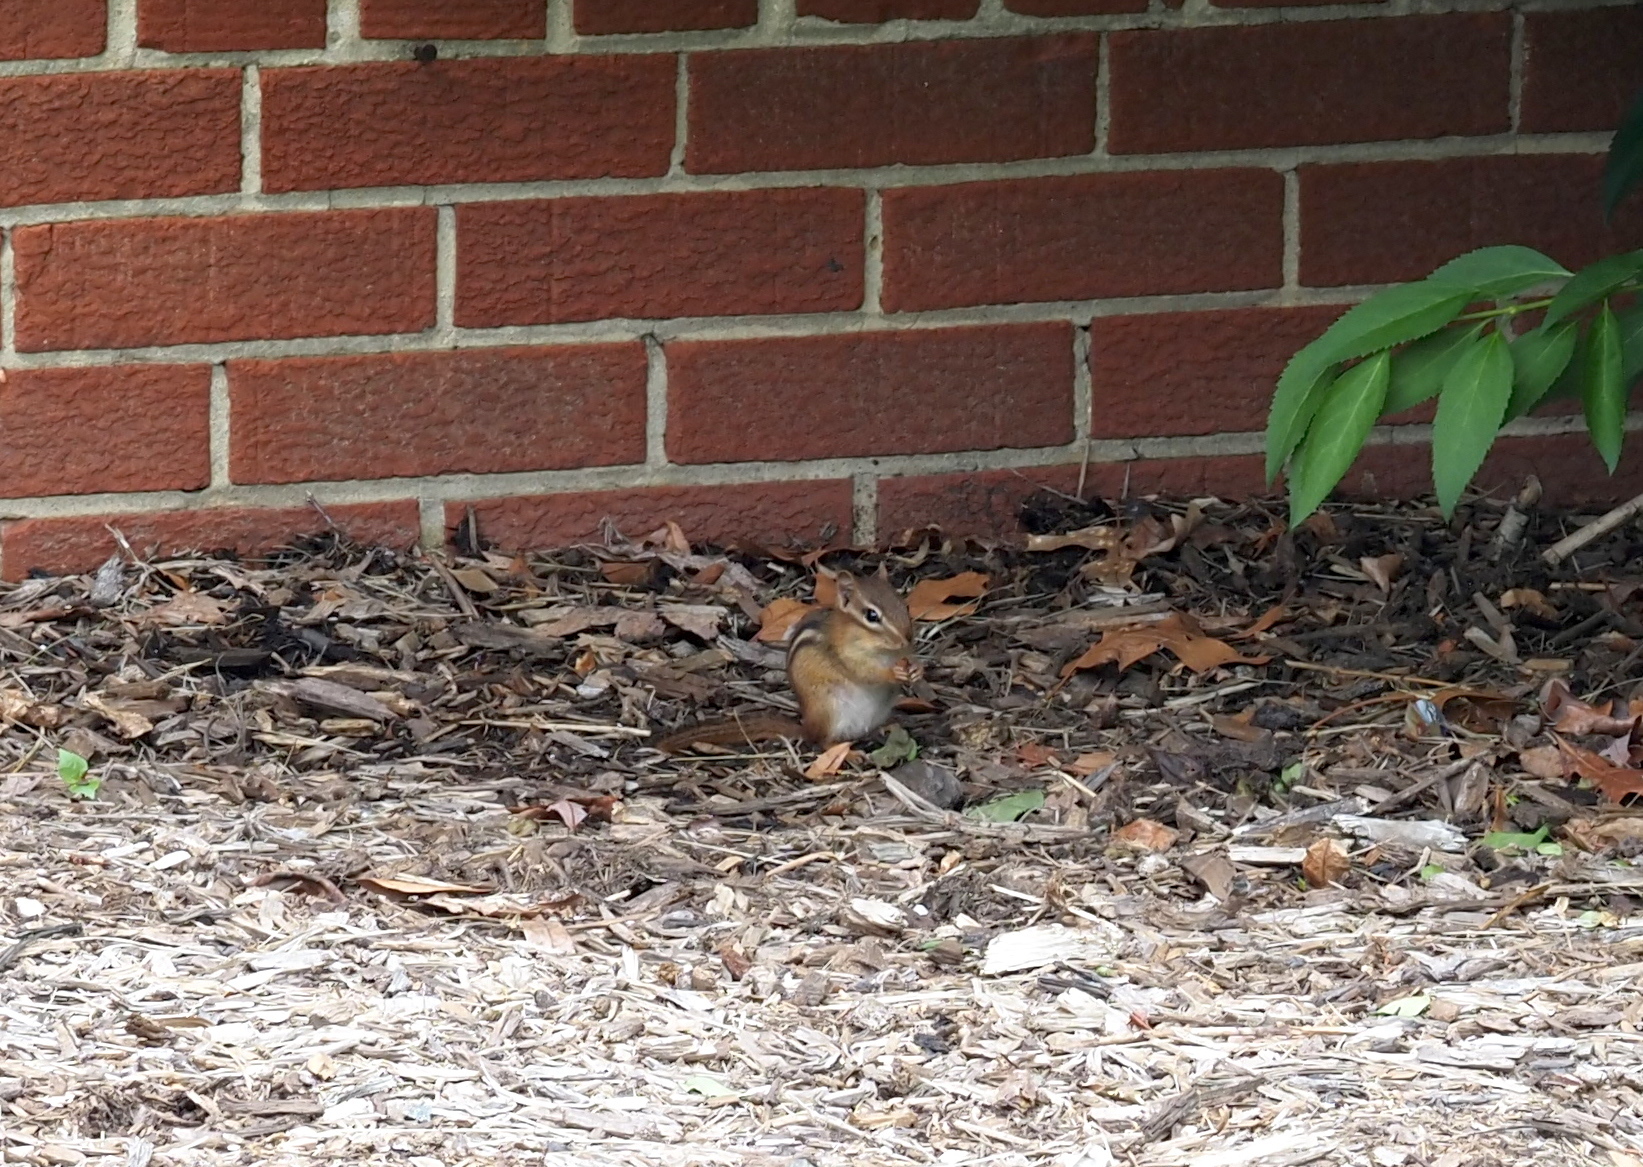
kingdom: Animalia
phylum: Chordata
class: Mammalia
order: Rodentia
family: Sciuridae
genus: Tamias
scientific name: Tamias striatus
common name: Eastern chipmunk
